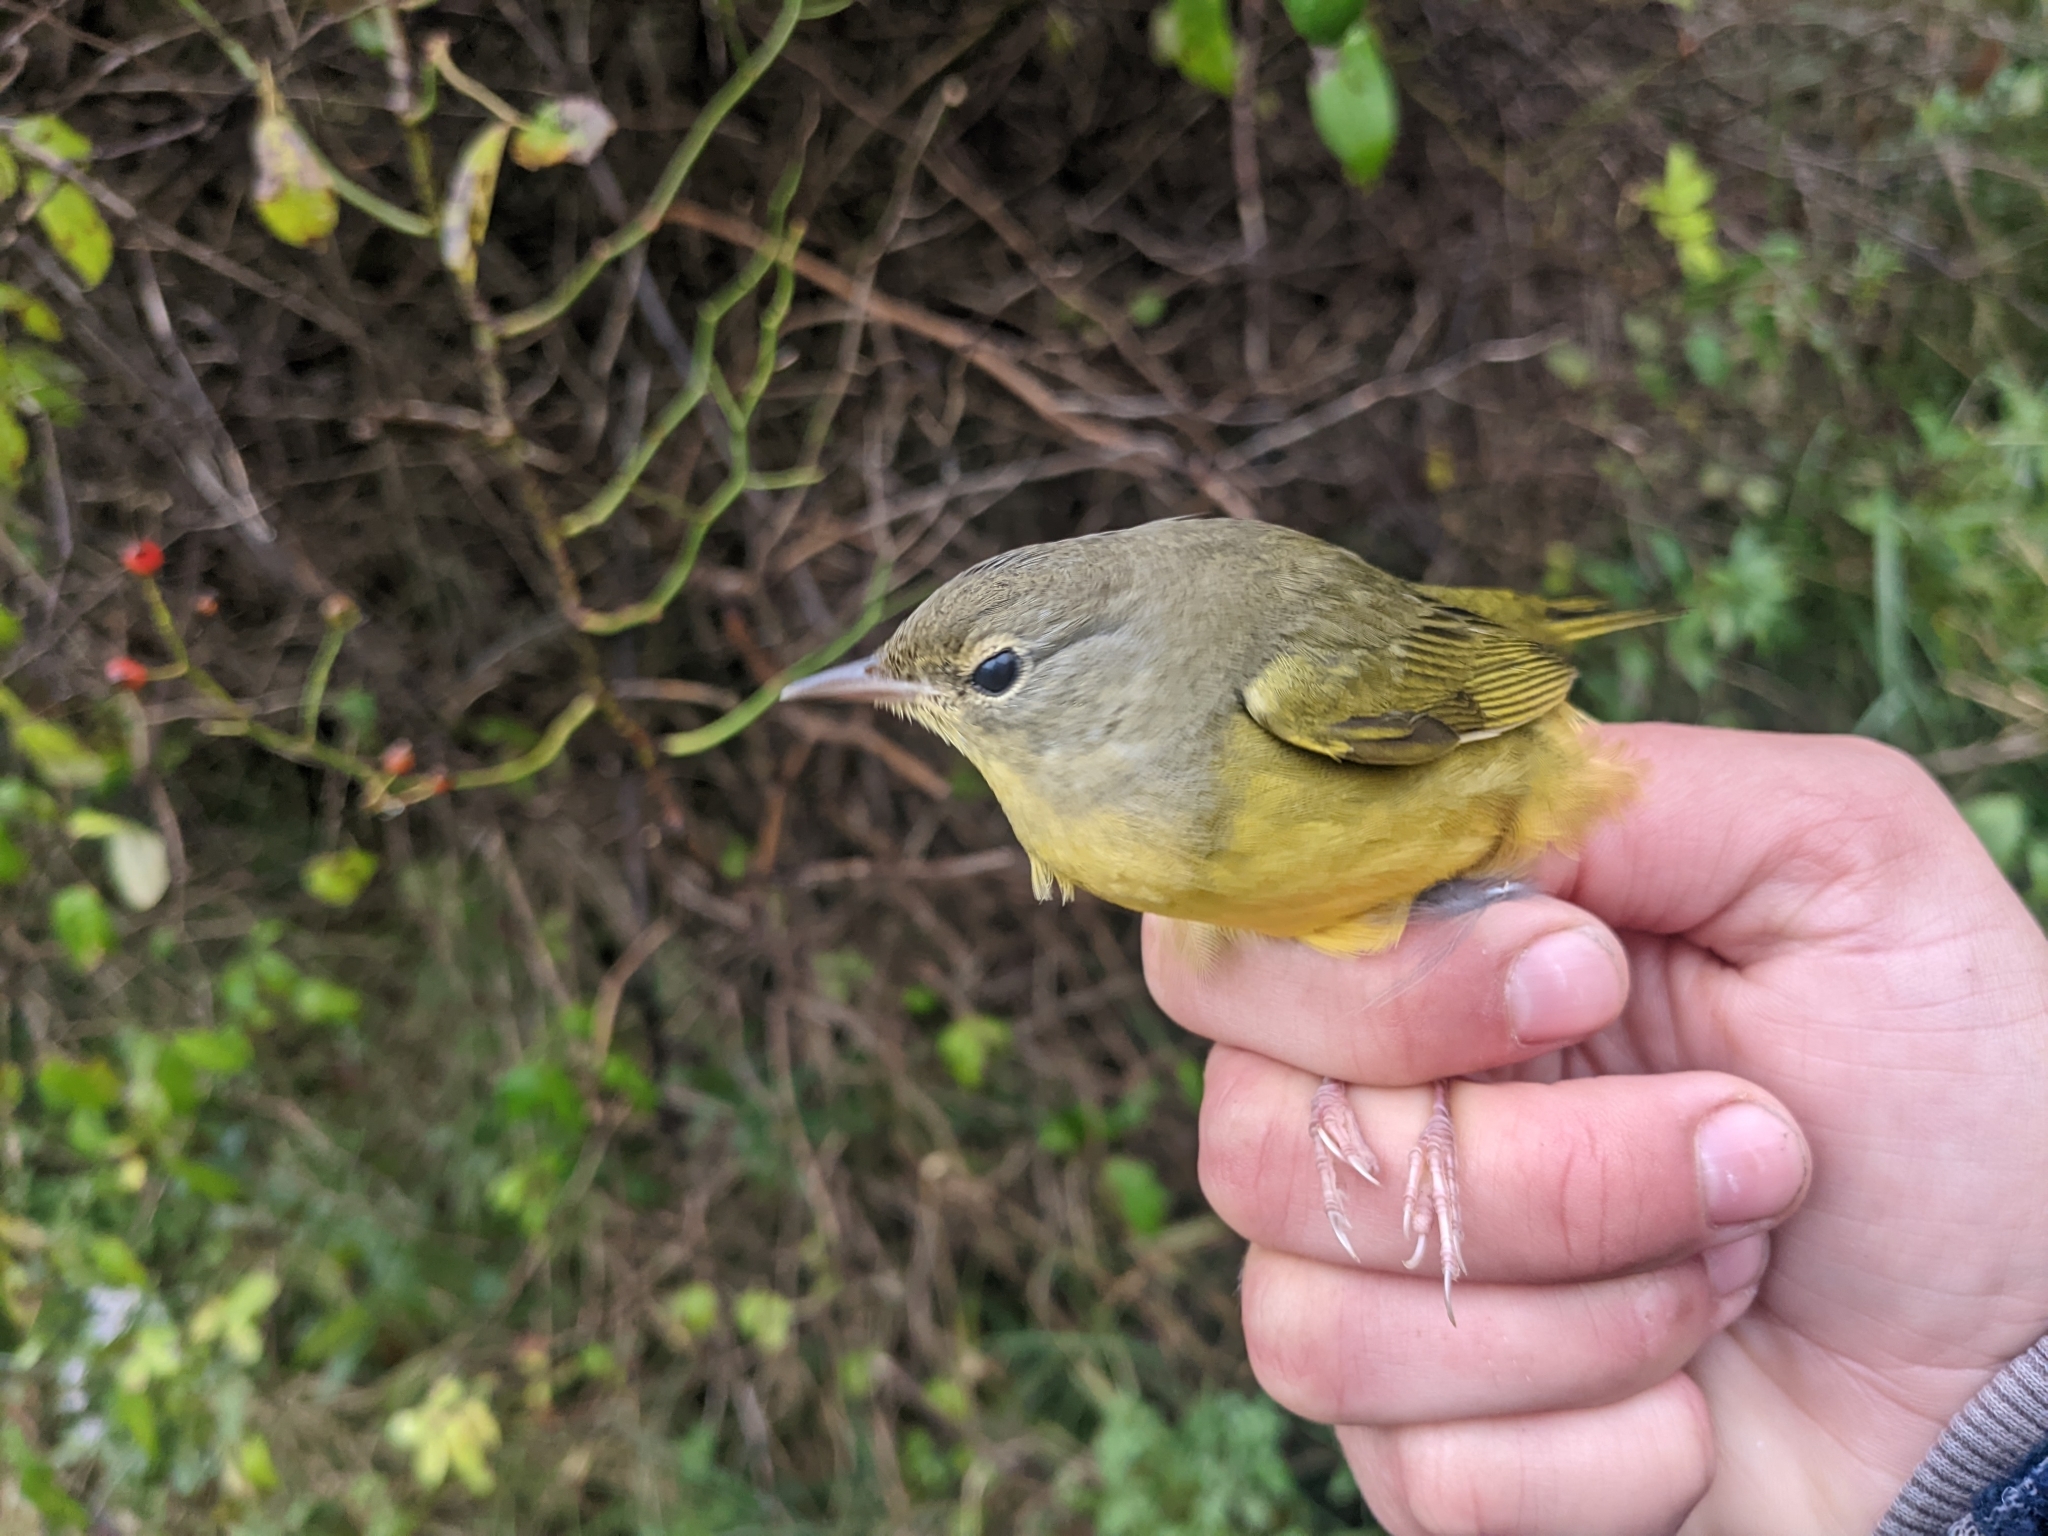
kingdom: Animalia
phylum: Chordata
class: Aves
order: Passeriformes
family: Parulidae
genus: Geothlypis
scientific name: Geothlypis philadelphia
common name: Mourning warbler
